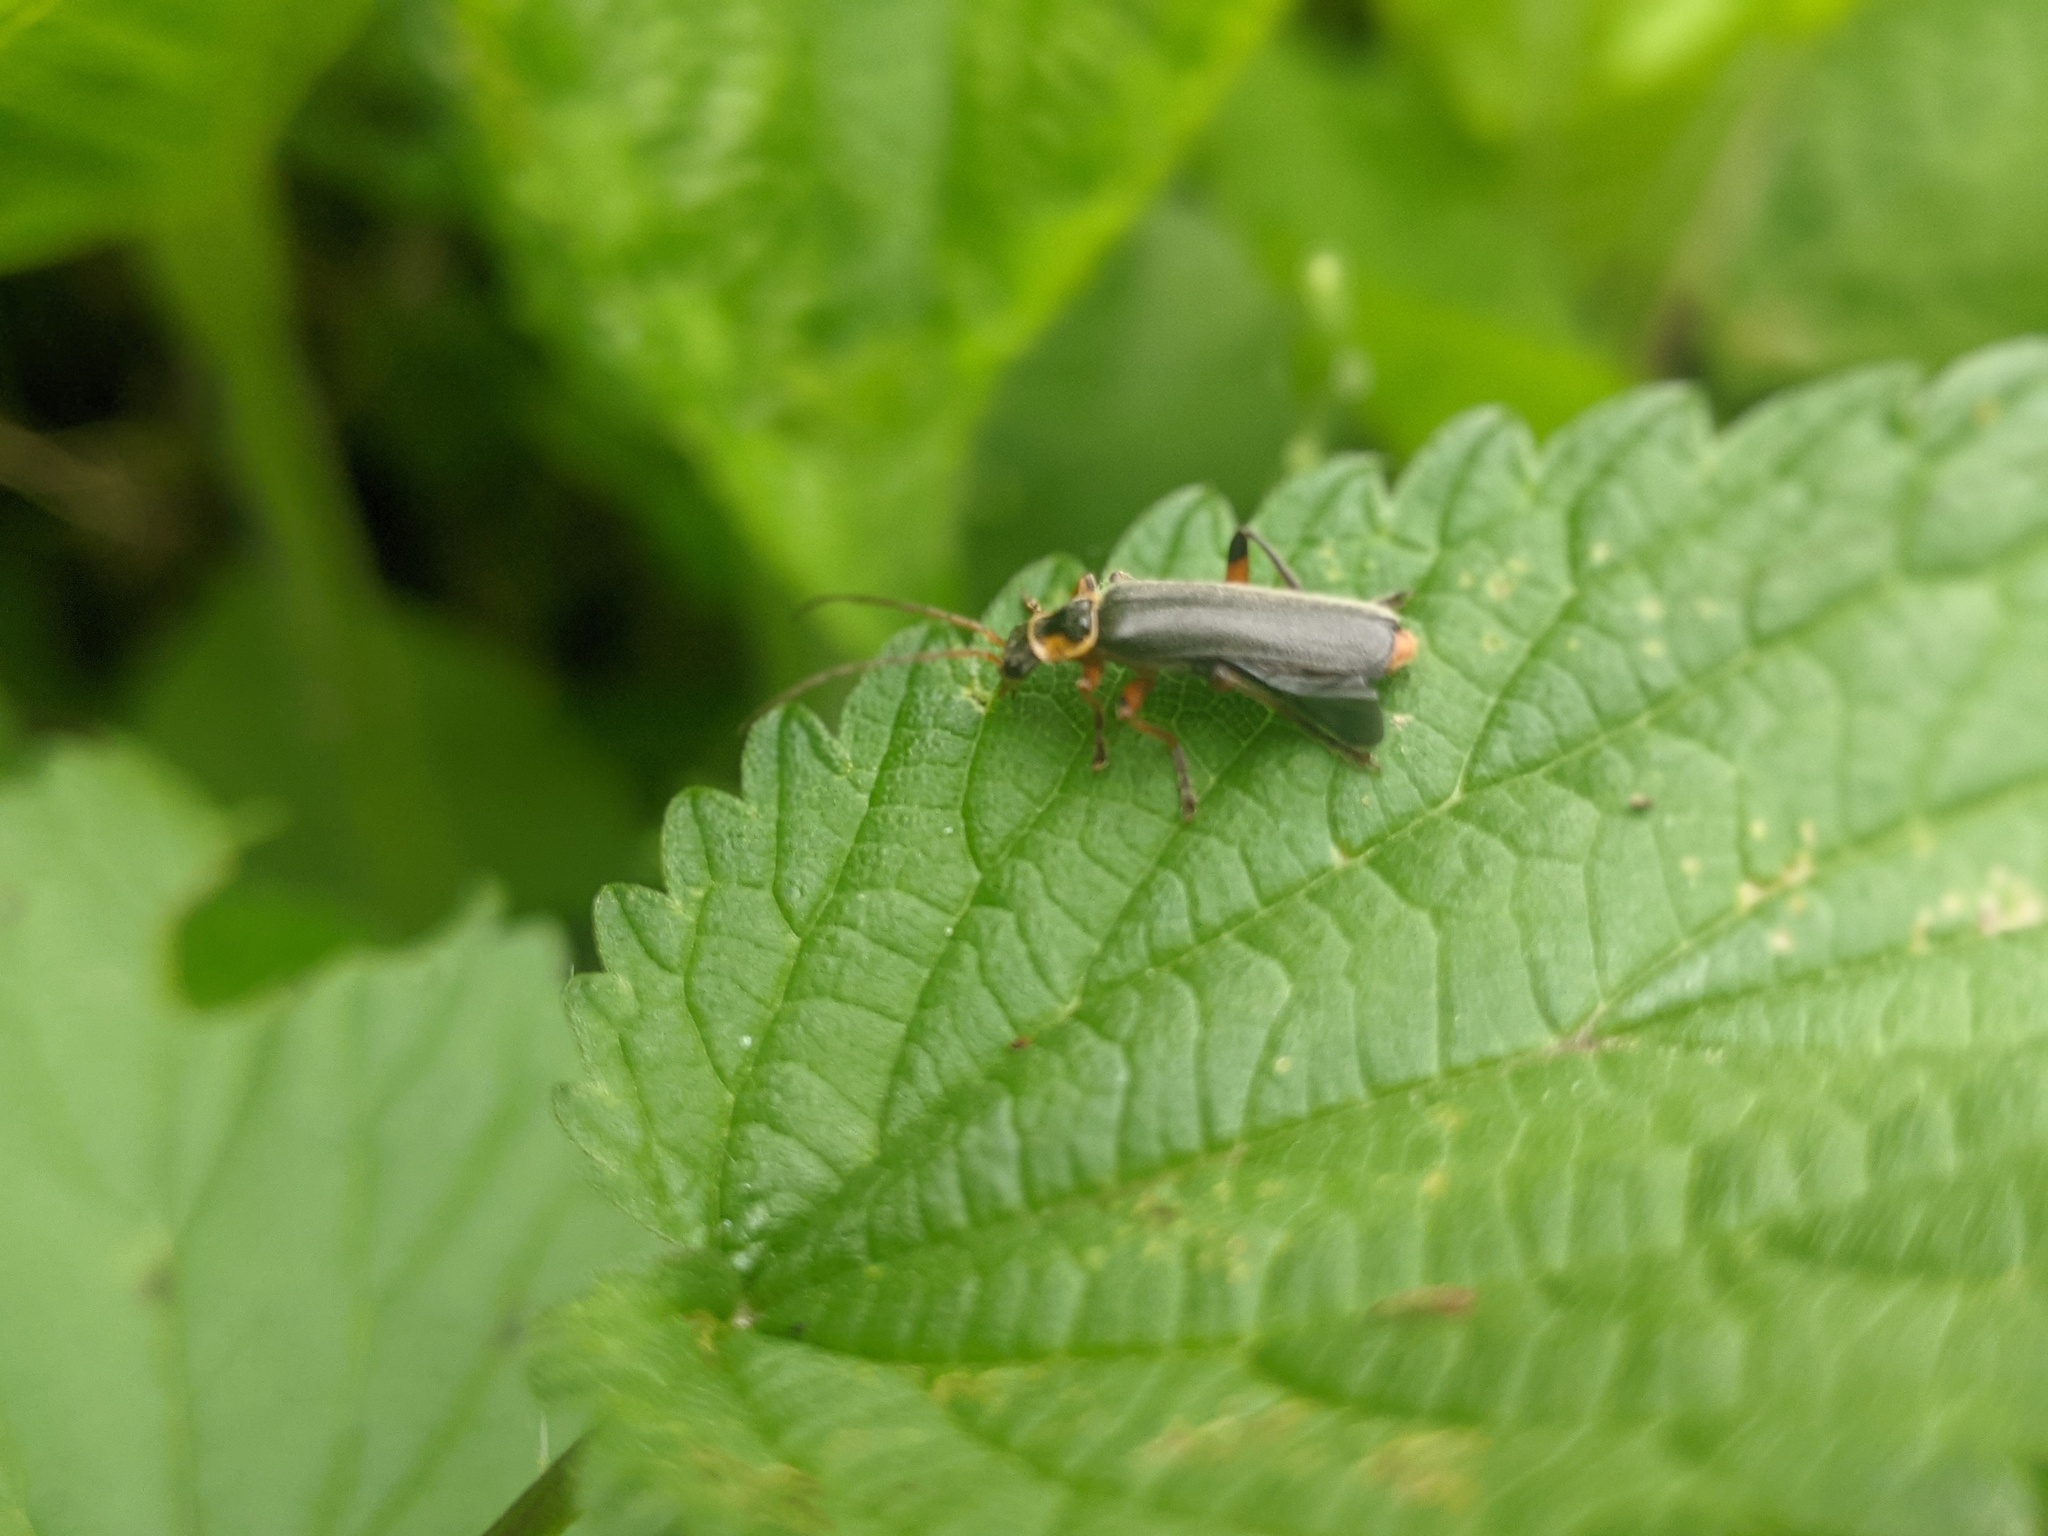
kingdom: Animalia
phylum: Arthropoda
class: Insecta
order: Coleoptera
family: Cantharidae
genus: Cantharis
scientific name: Cantharis nigricans
